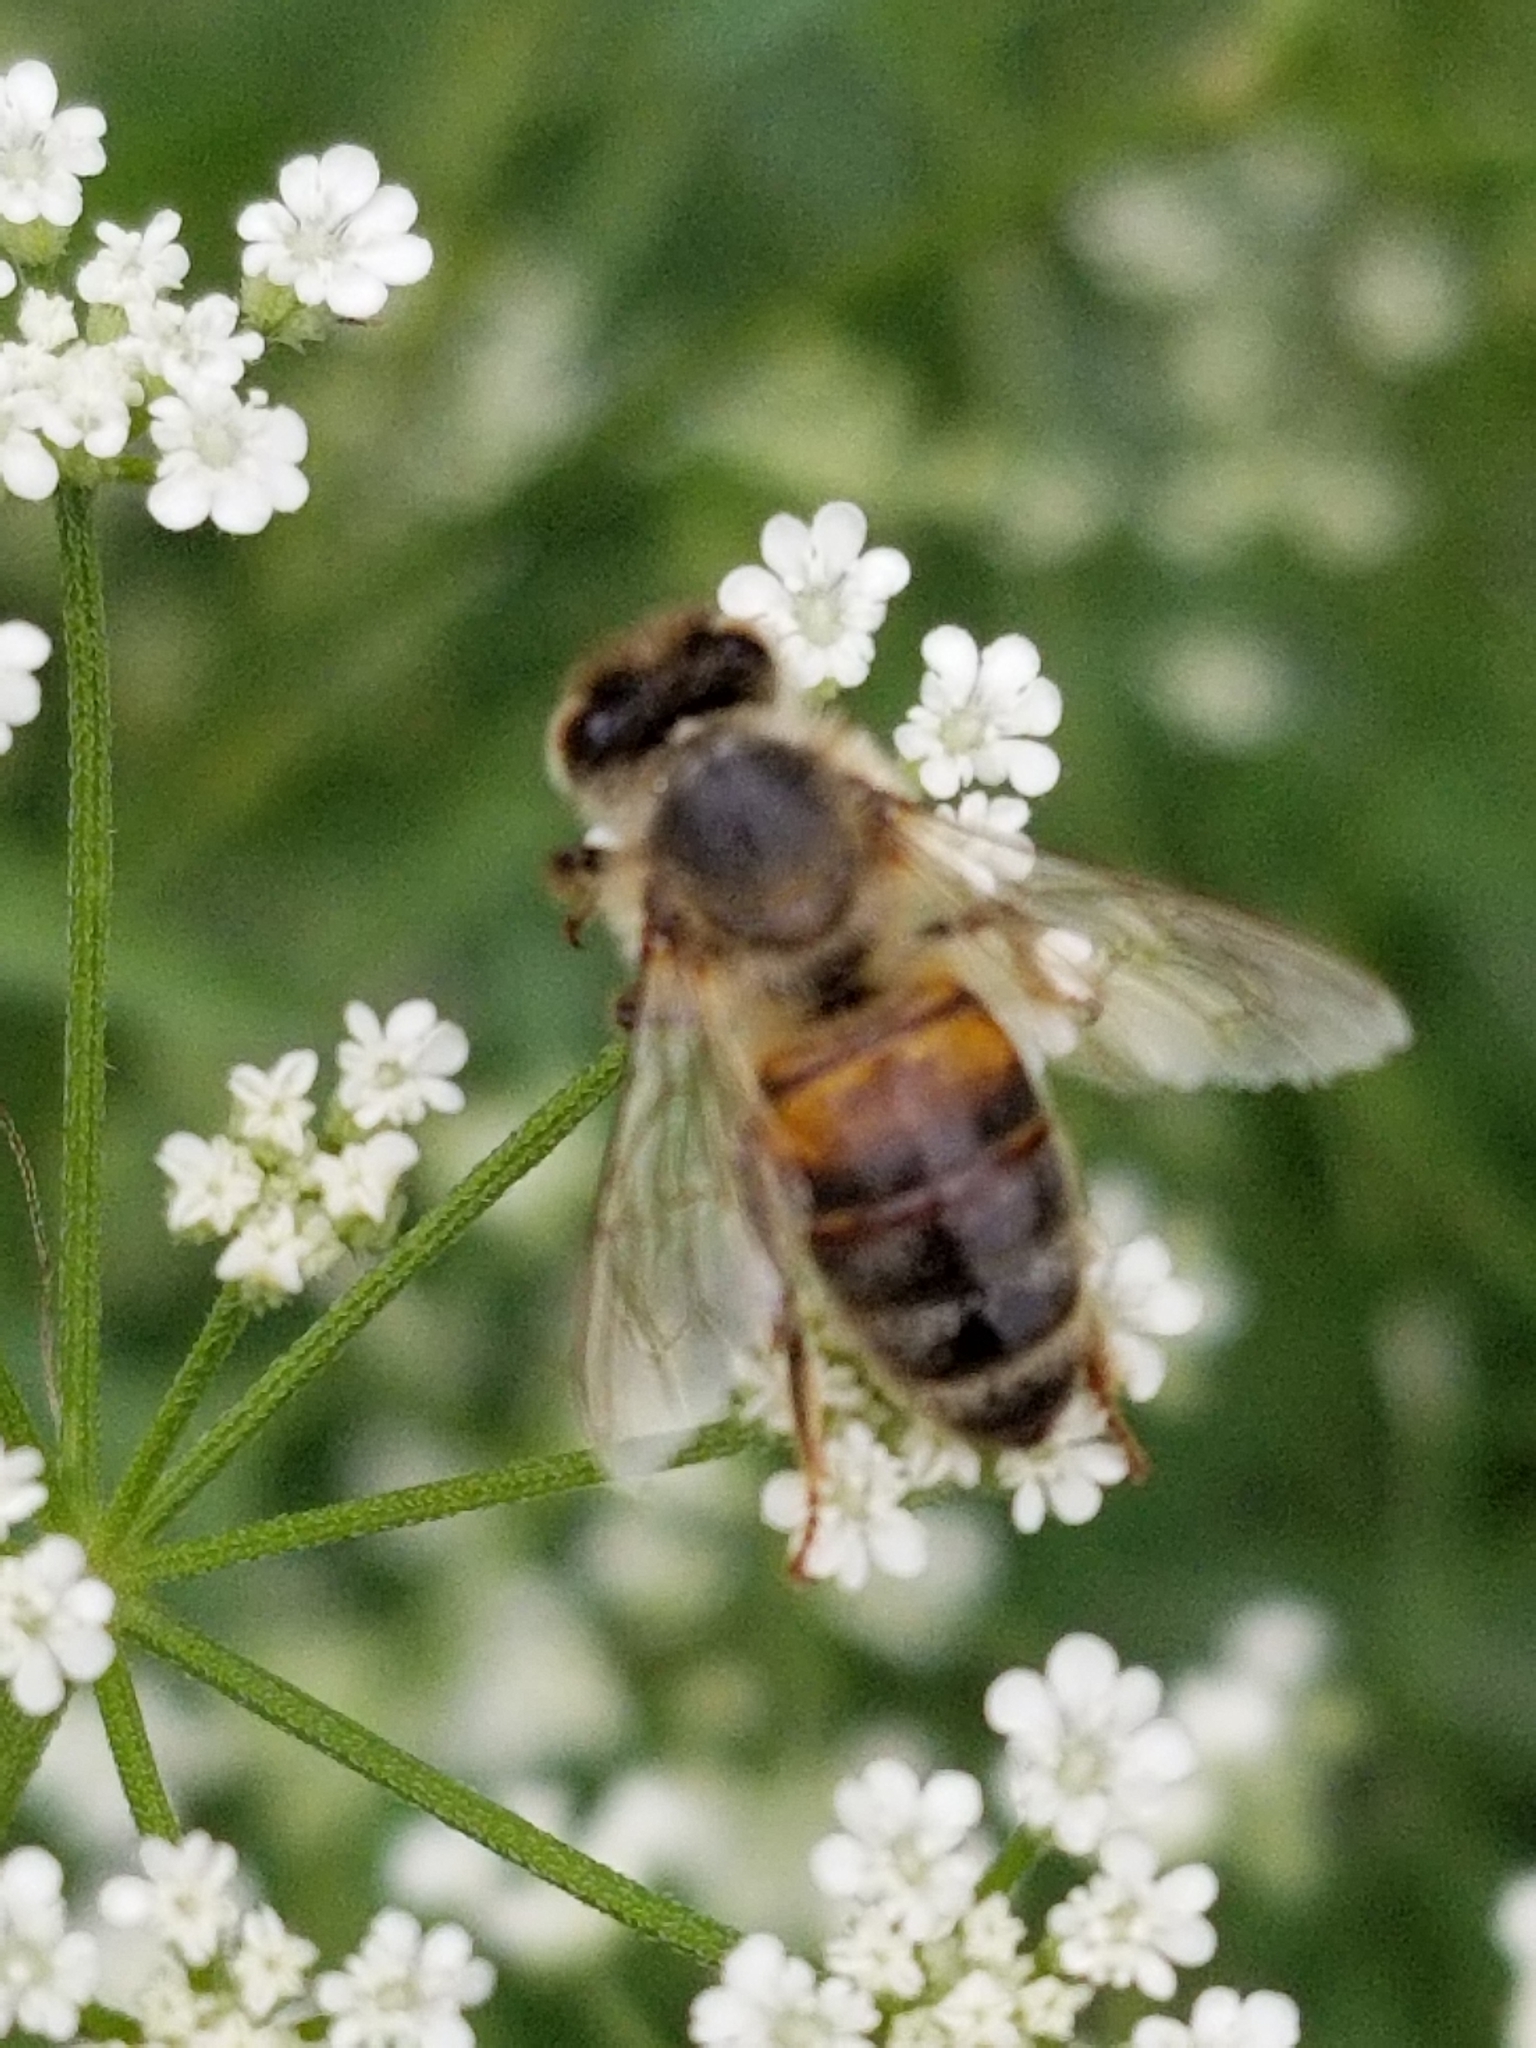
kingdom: Animalia
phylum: Arthropoda
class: Insecta
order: Hymenoptera
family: Apidae
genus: Apis
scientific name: Apis mellifera
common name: Honey bee
